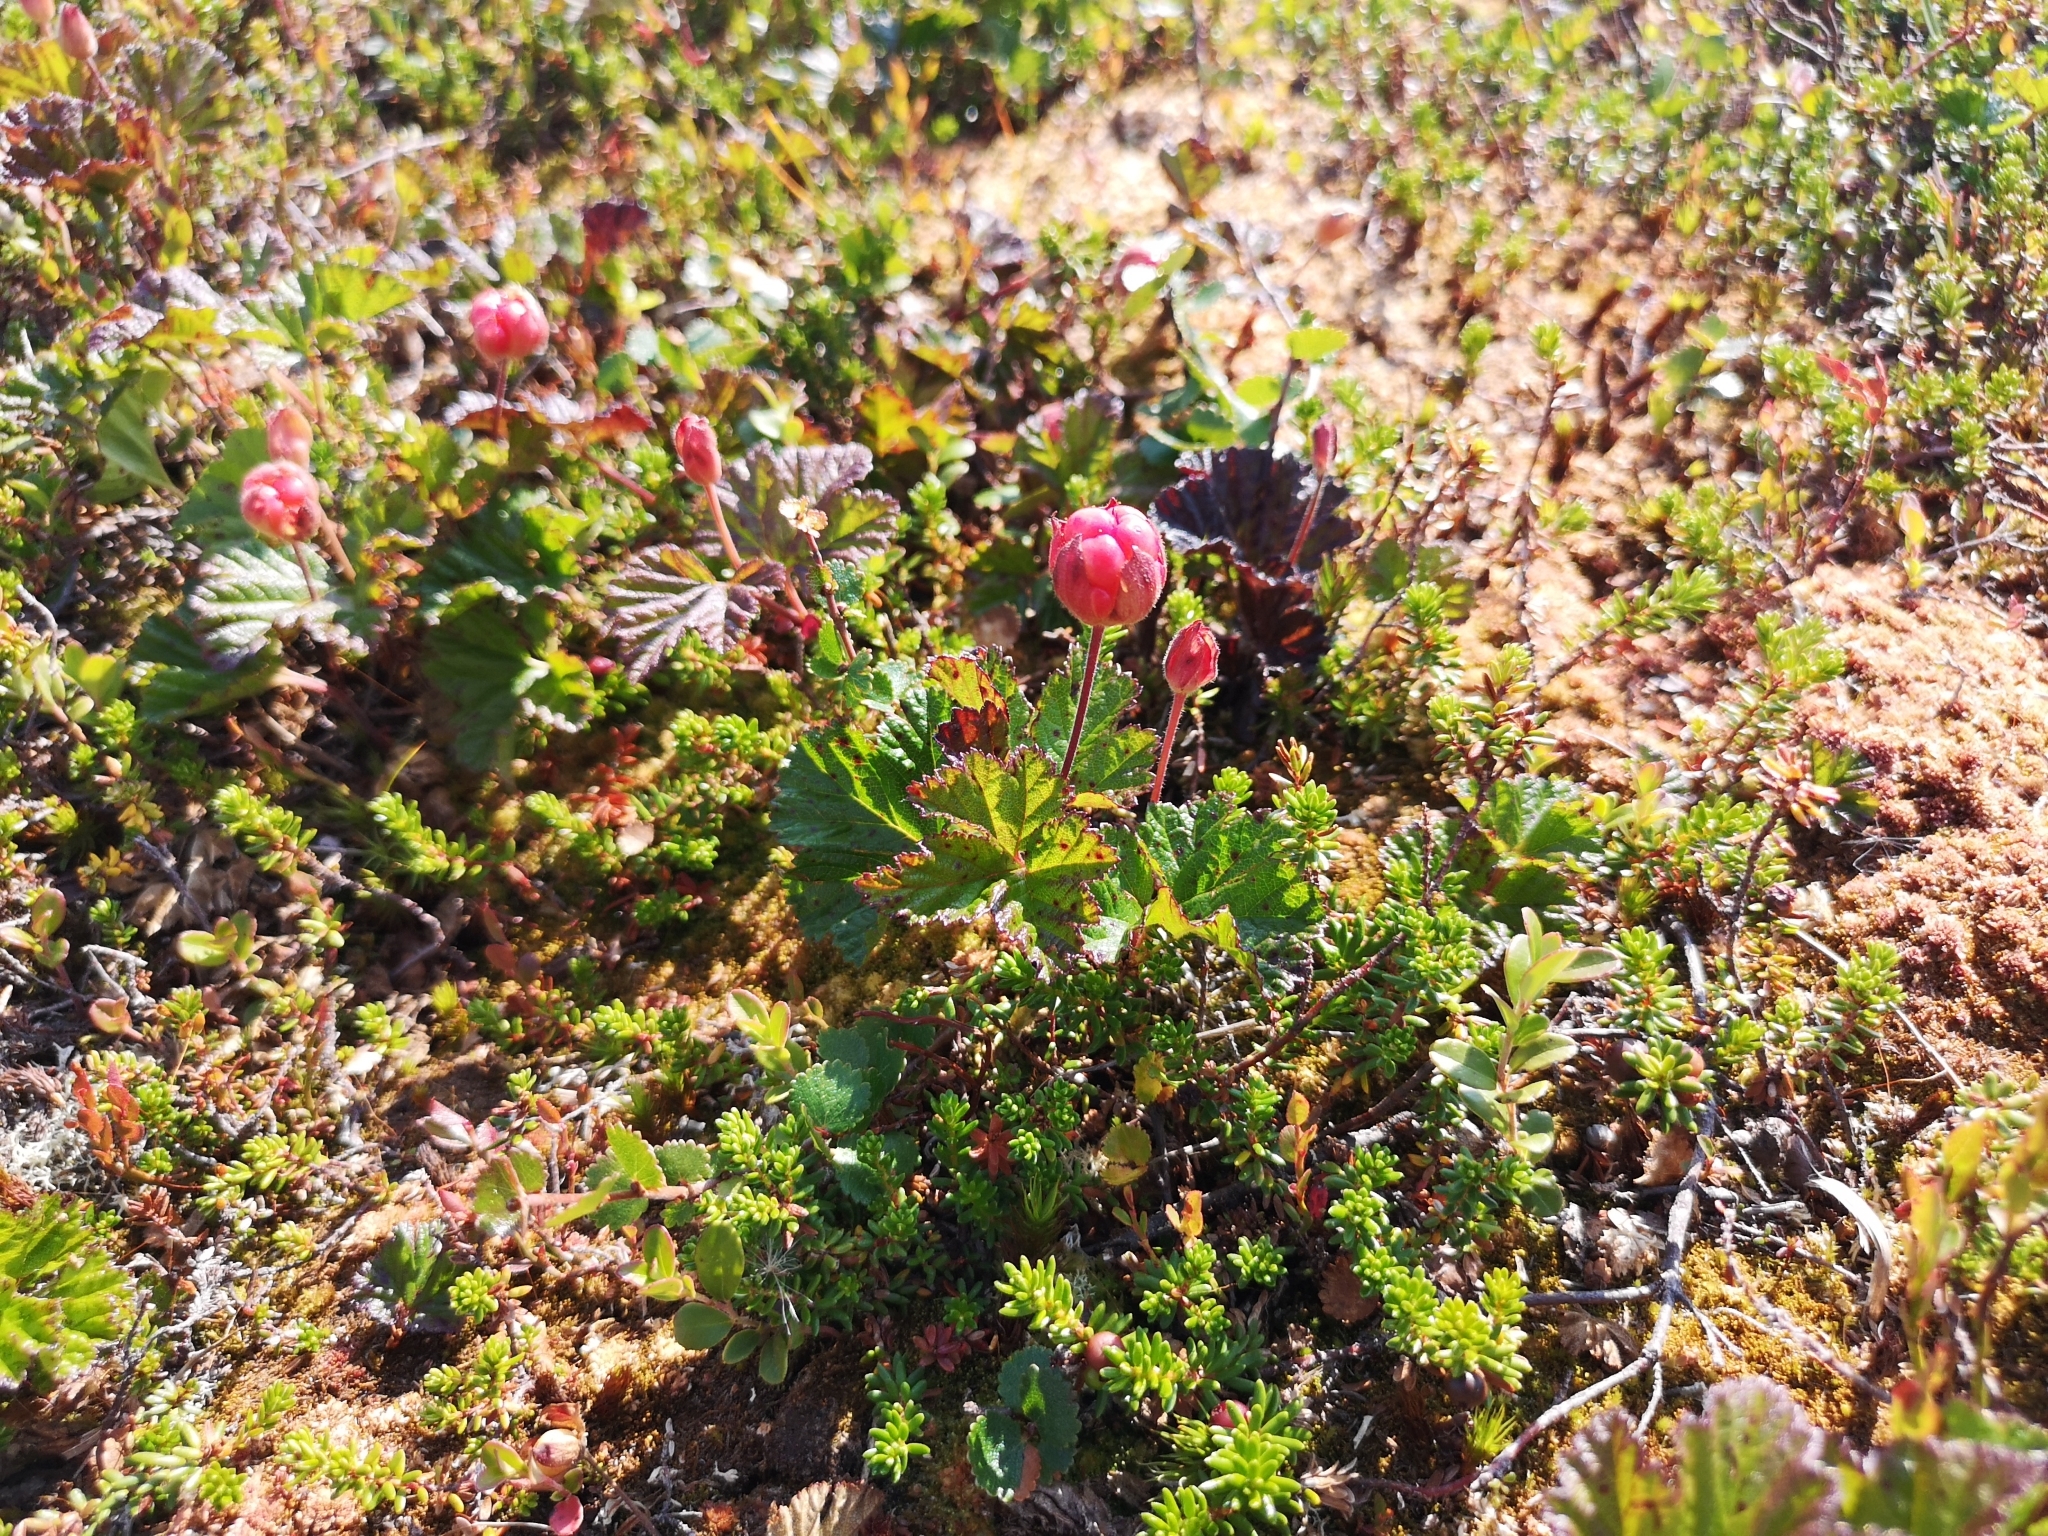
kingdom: Plantae
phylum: Tracheophyta
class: Magnoliopsida
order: Rosales
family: Rosaceae
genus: Rubus
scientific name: Rubus chamaemorus
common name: Cloudberry
